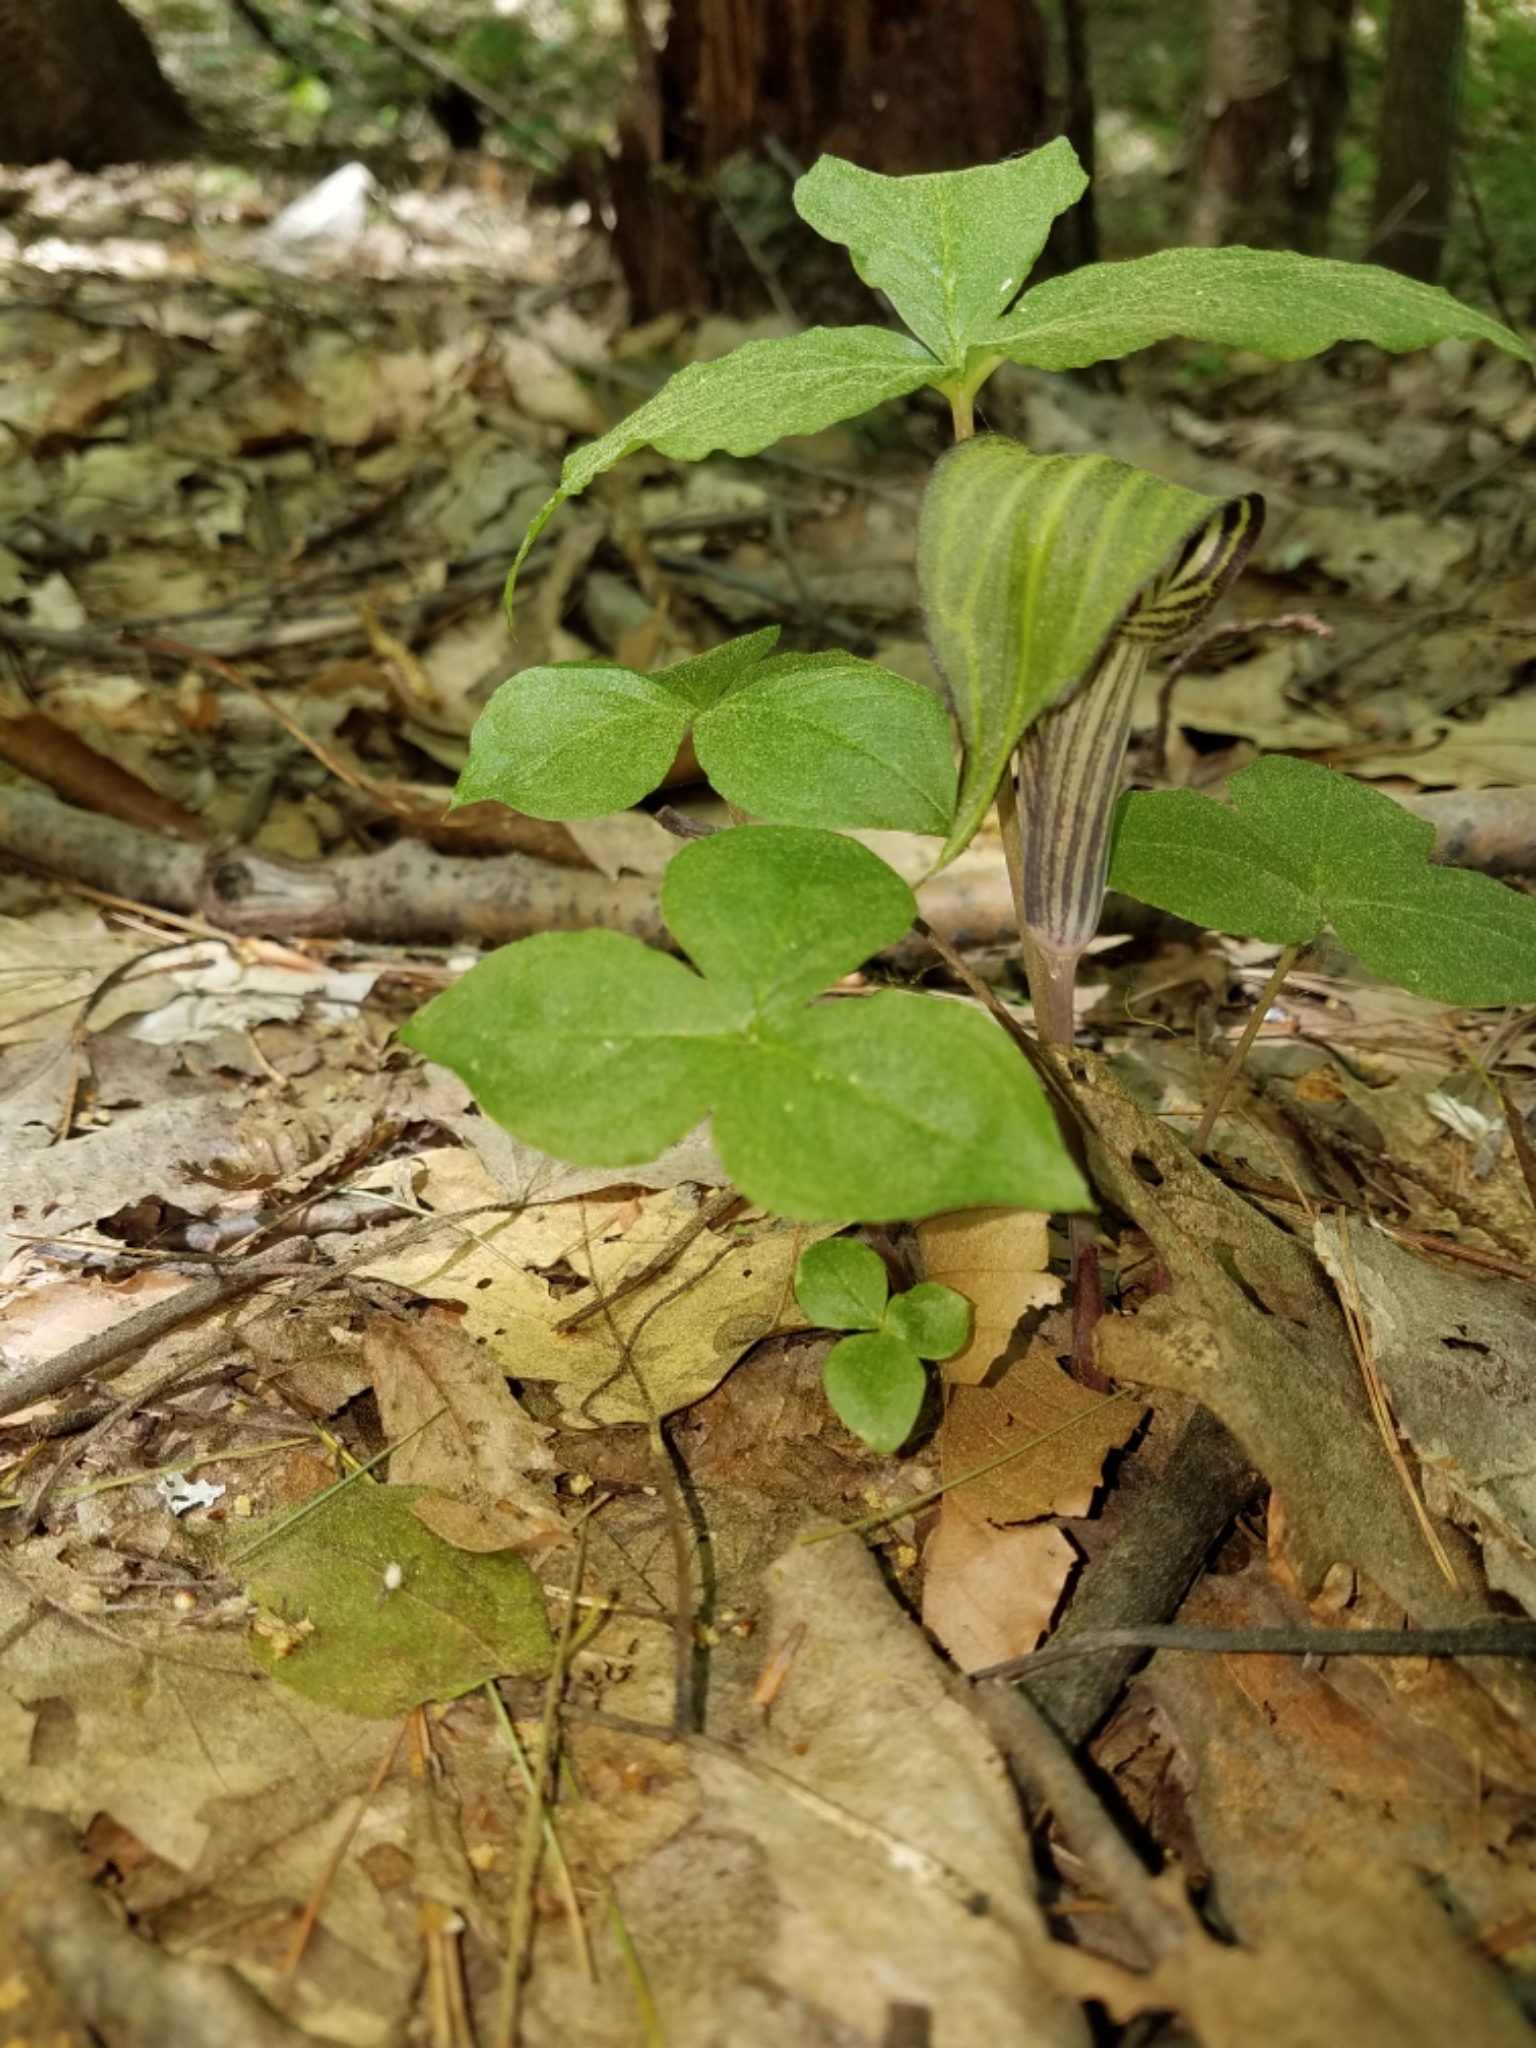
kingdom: Plantae
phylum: Tracheophyta
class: Liliopsida
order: Alismatales
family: Araceae
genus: Arisaema
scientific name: Arisaema triphyllum
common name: Jack-in-the-pulpit
